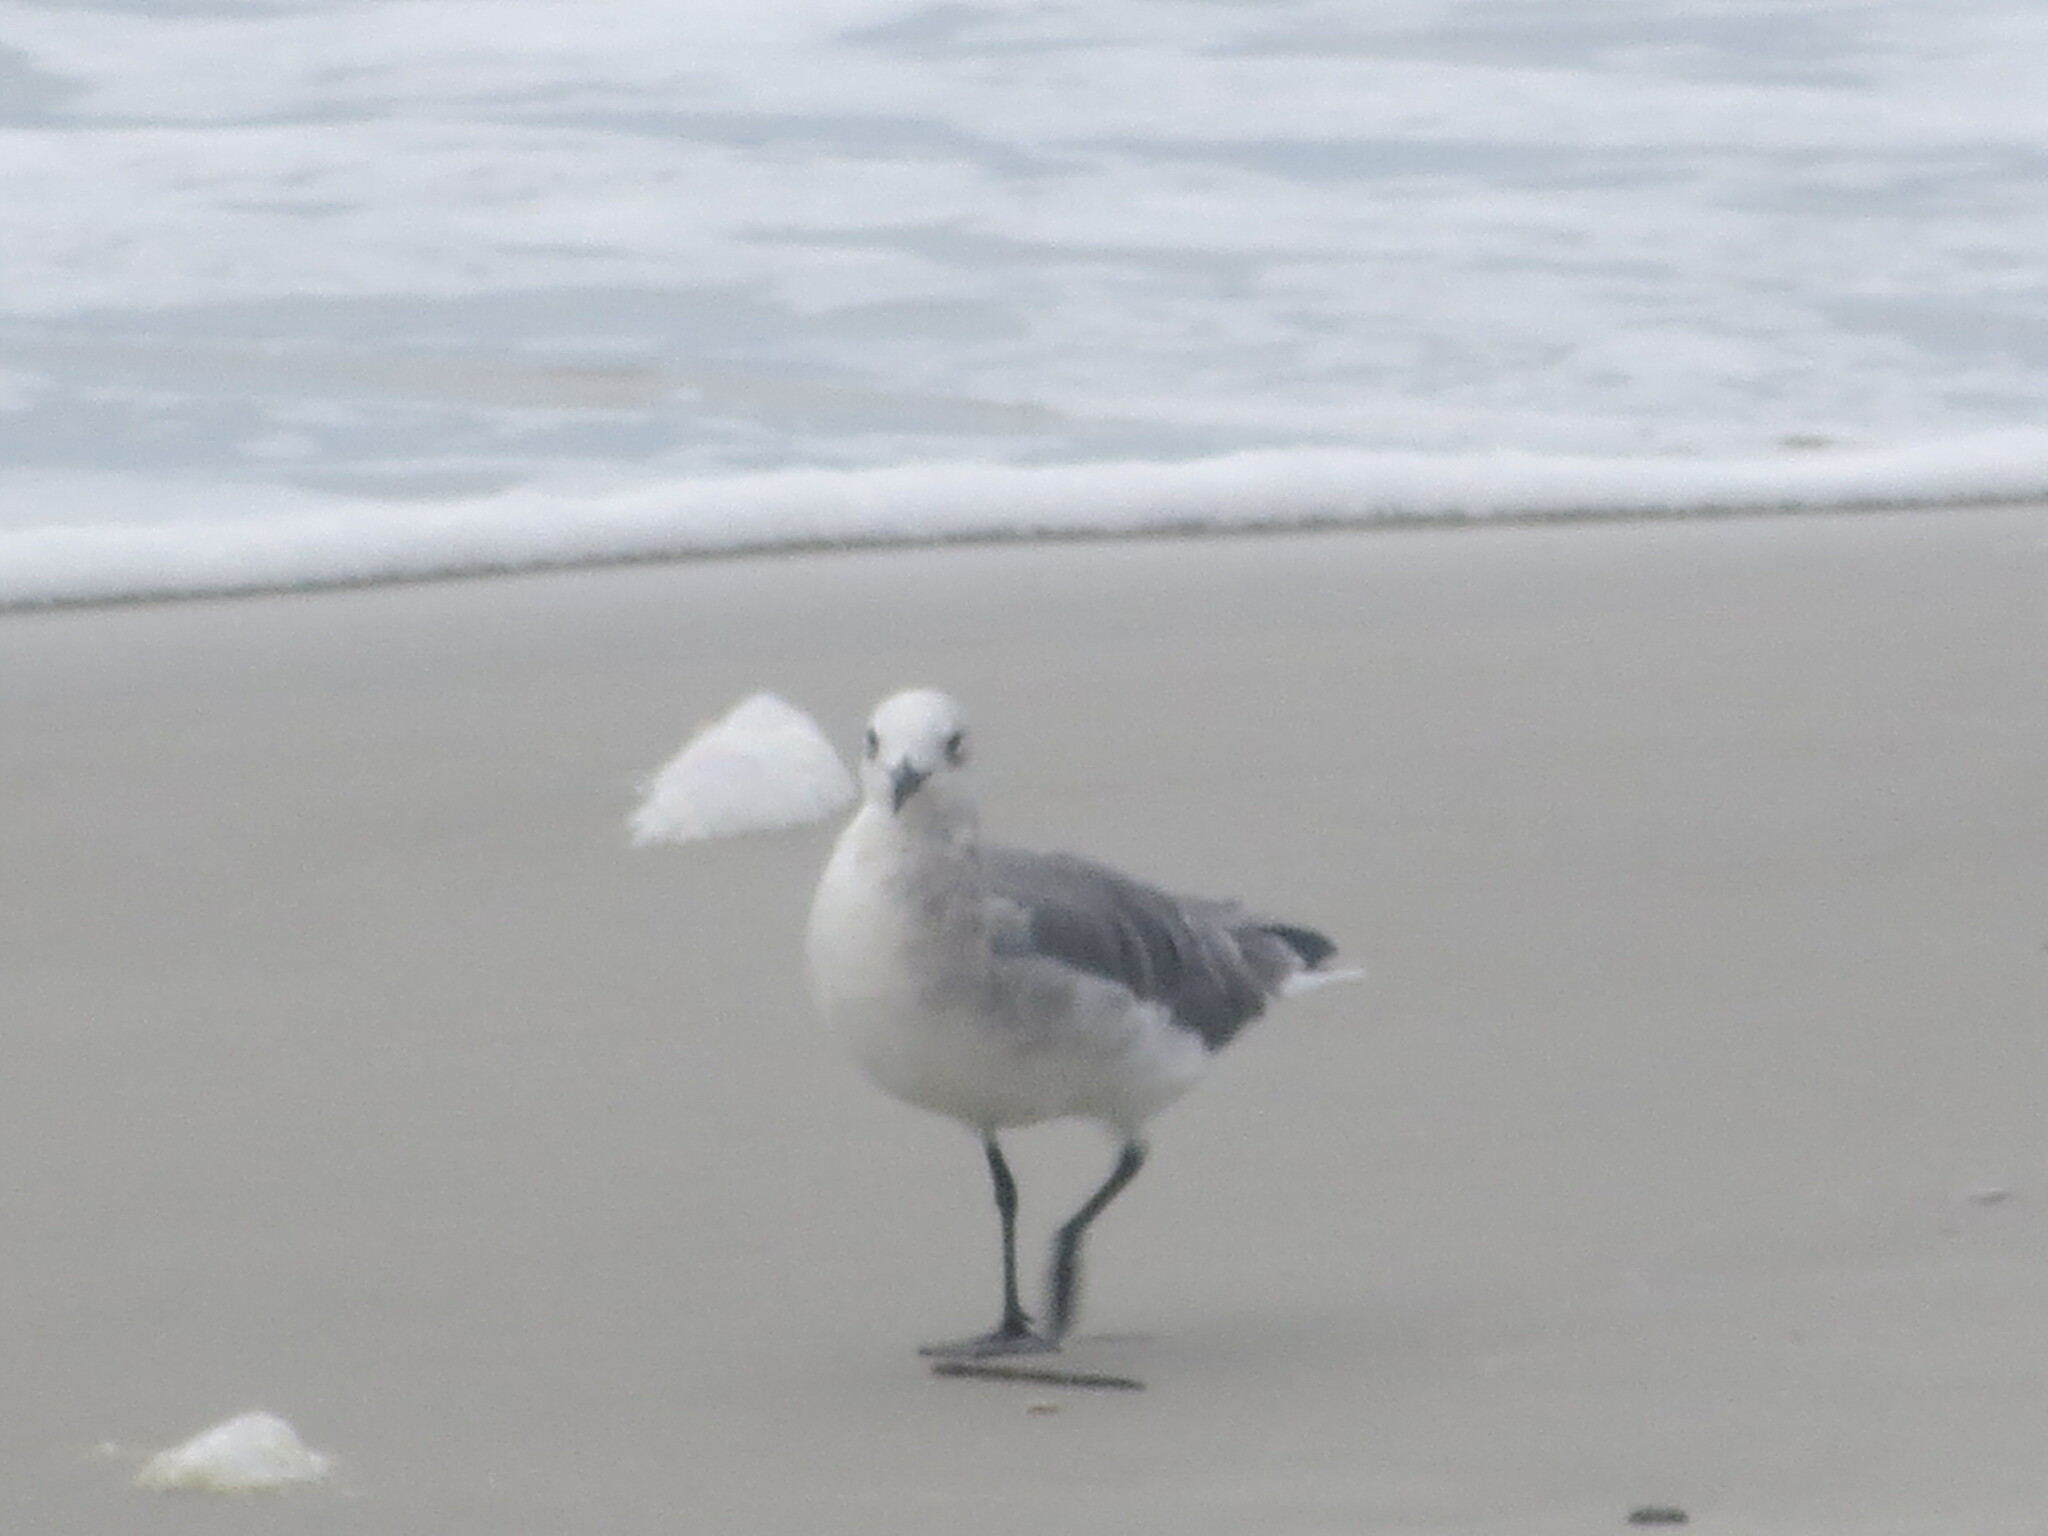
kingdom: Animalia
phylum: Chordata
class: Aves
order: Charadriiformes
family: Laridae
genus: Leucophaeus
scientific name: Leucophaeus atricilla
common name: Laughing gull
